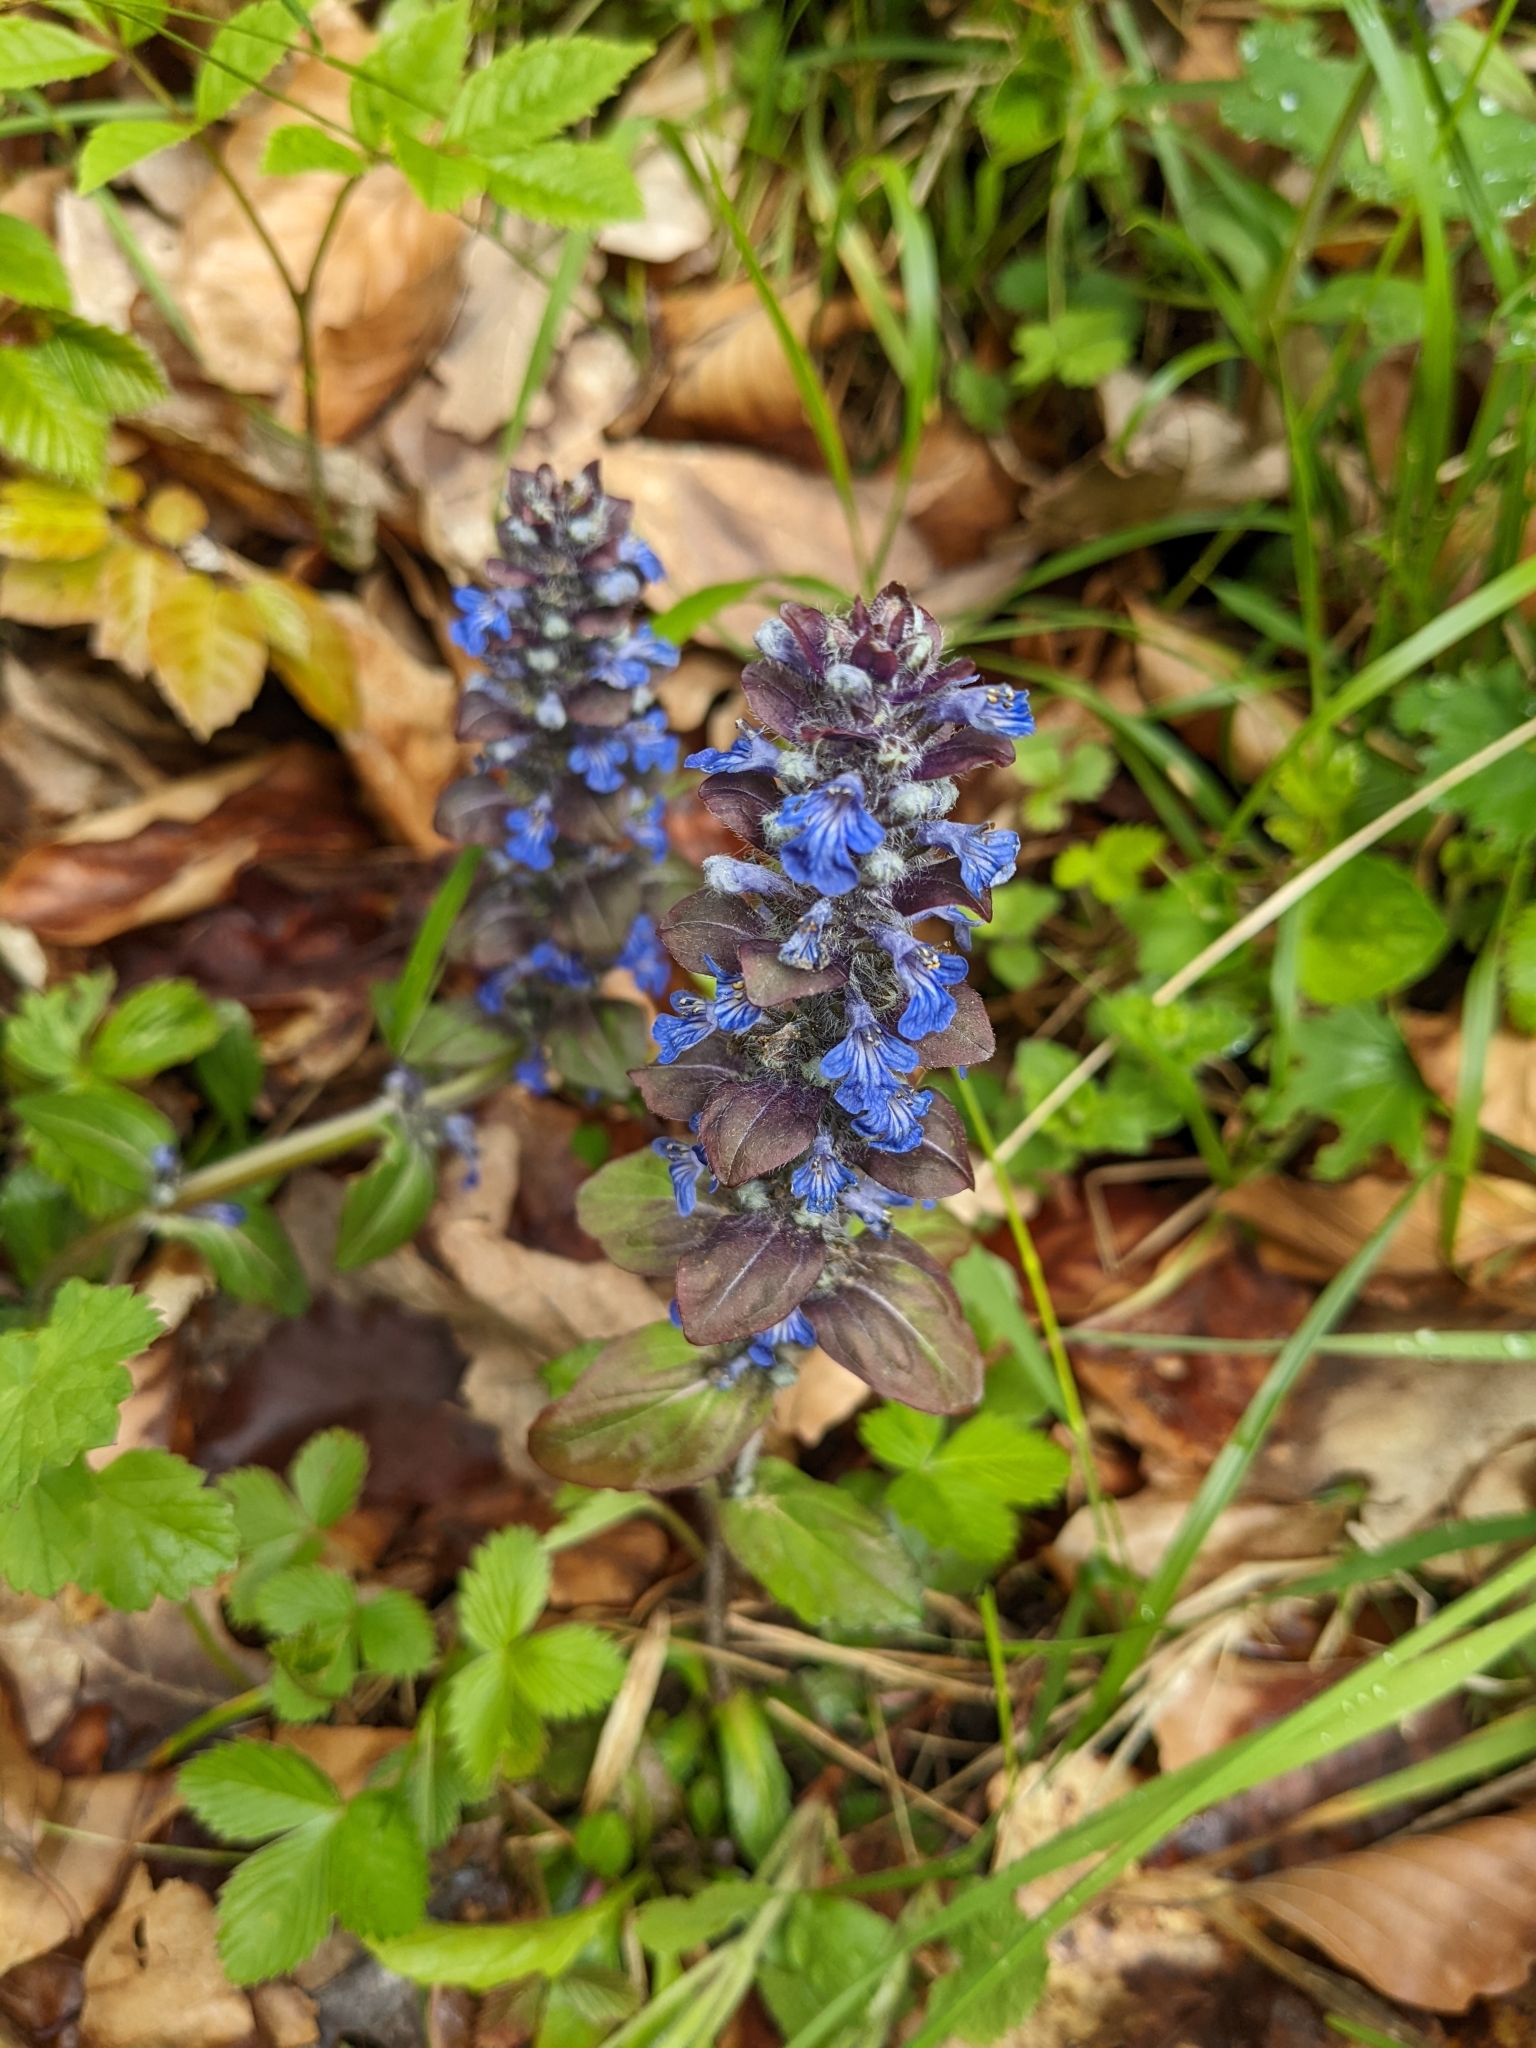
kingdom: Plantae
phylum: Tracheophyta
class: Magnoliopsida
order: Lamiales
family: Lamiaceae
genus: Ajuga
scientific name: Ajuga reptans
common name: Bugle
